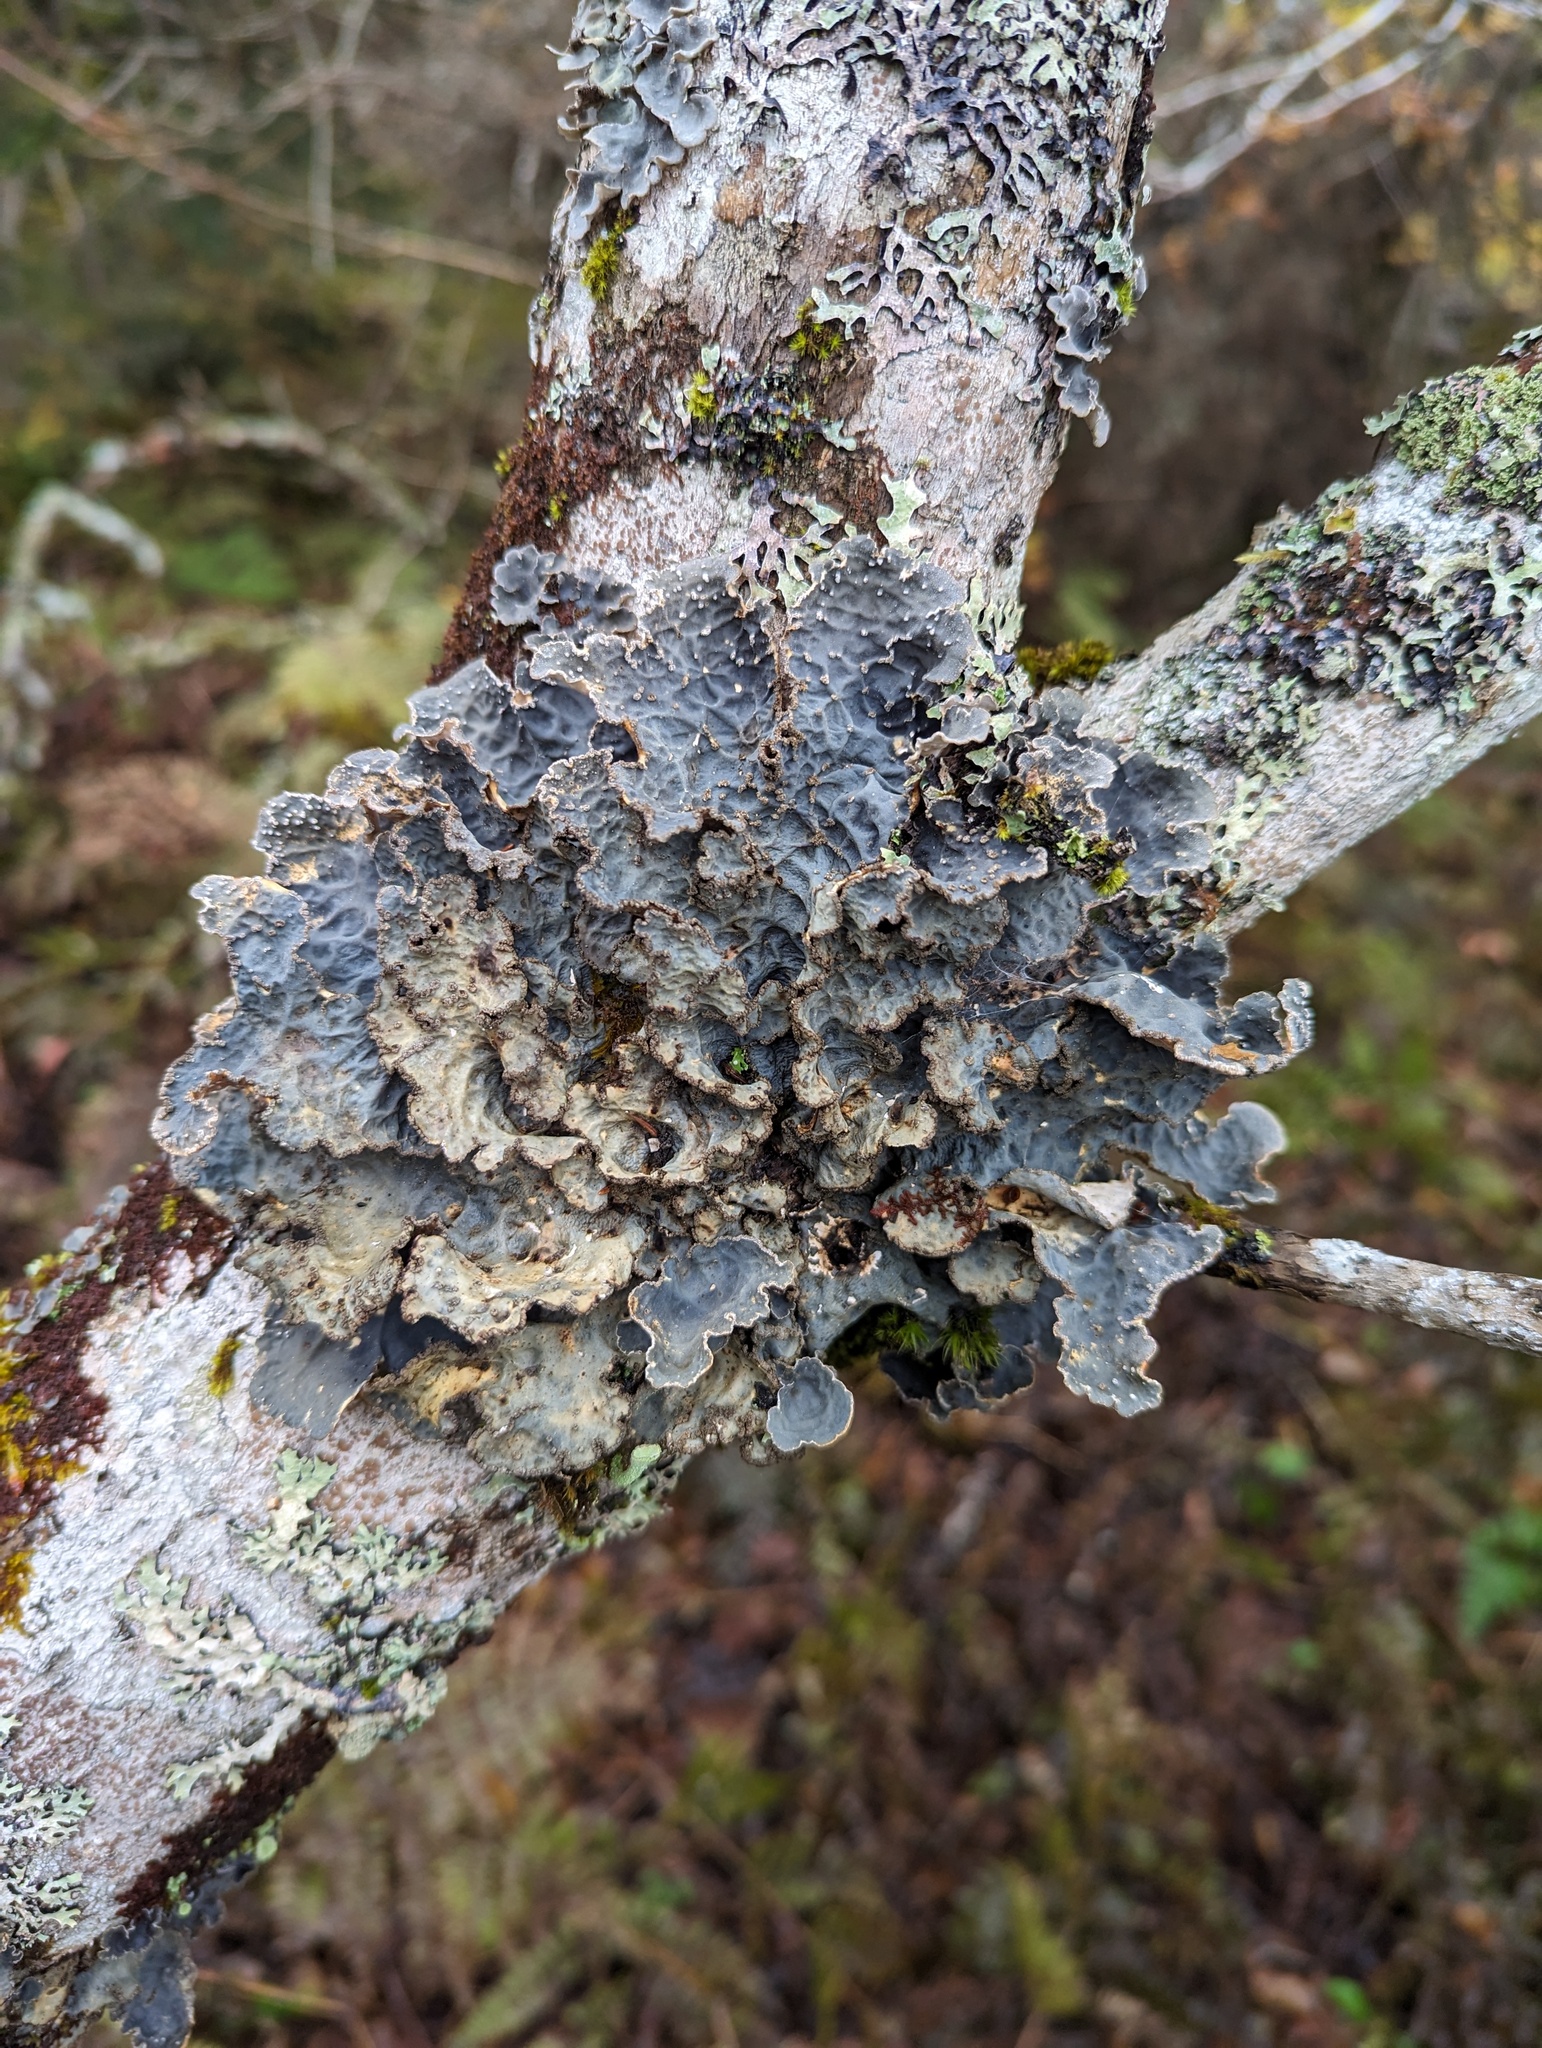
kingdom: Fungi
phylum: Ascomycota
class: Lecanoromycetes
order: Peltigerales
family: Lobariaceae
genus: Lobarina
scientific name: Lobarina scrobiculata
